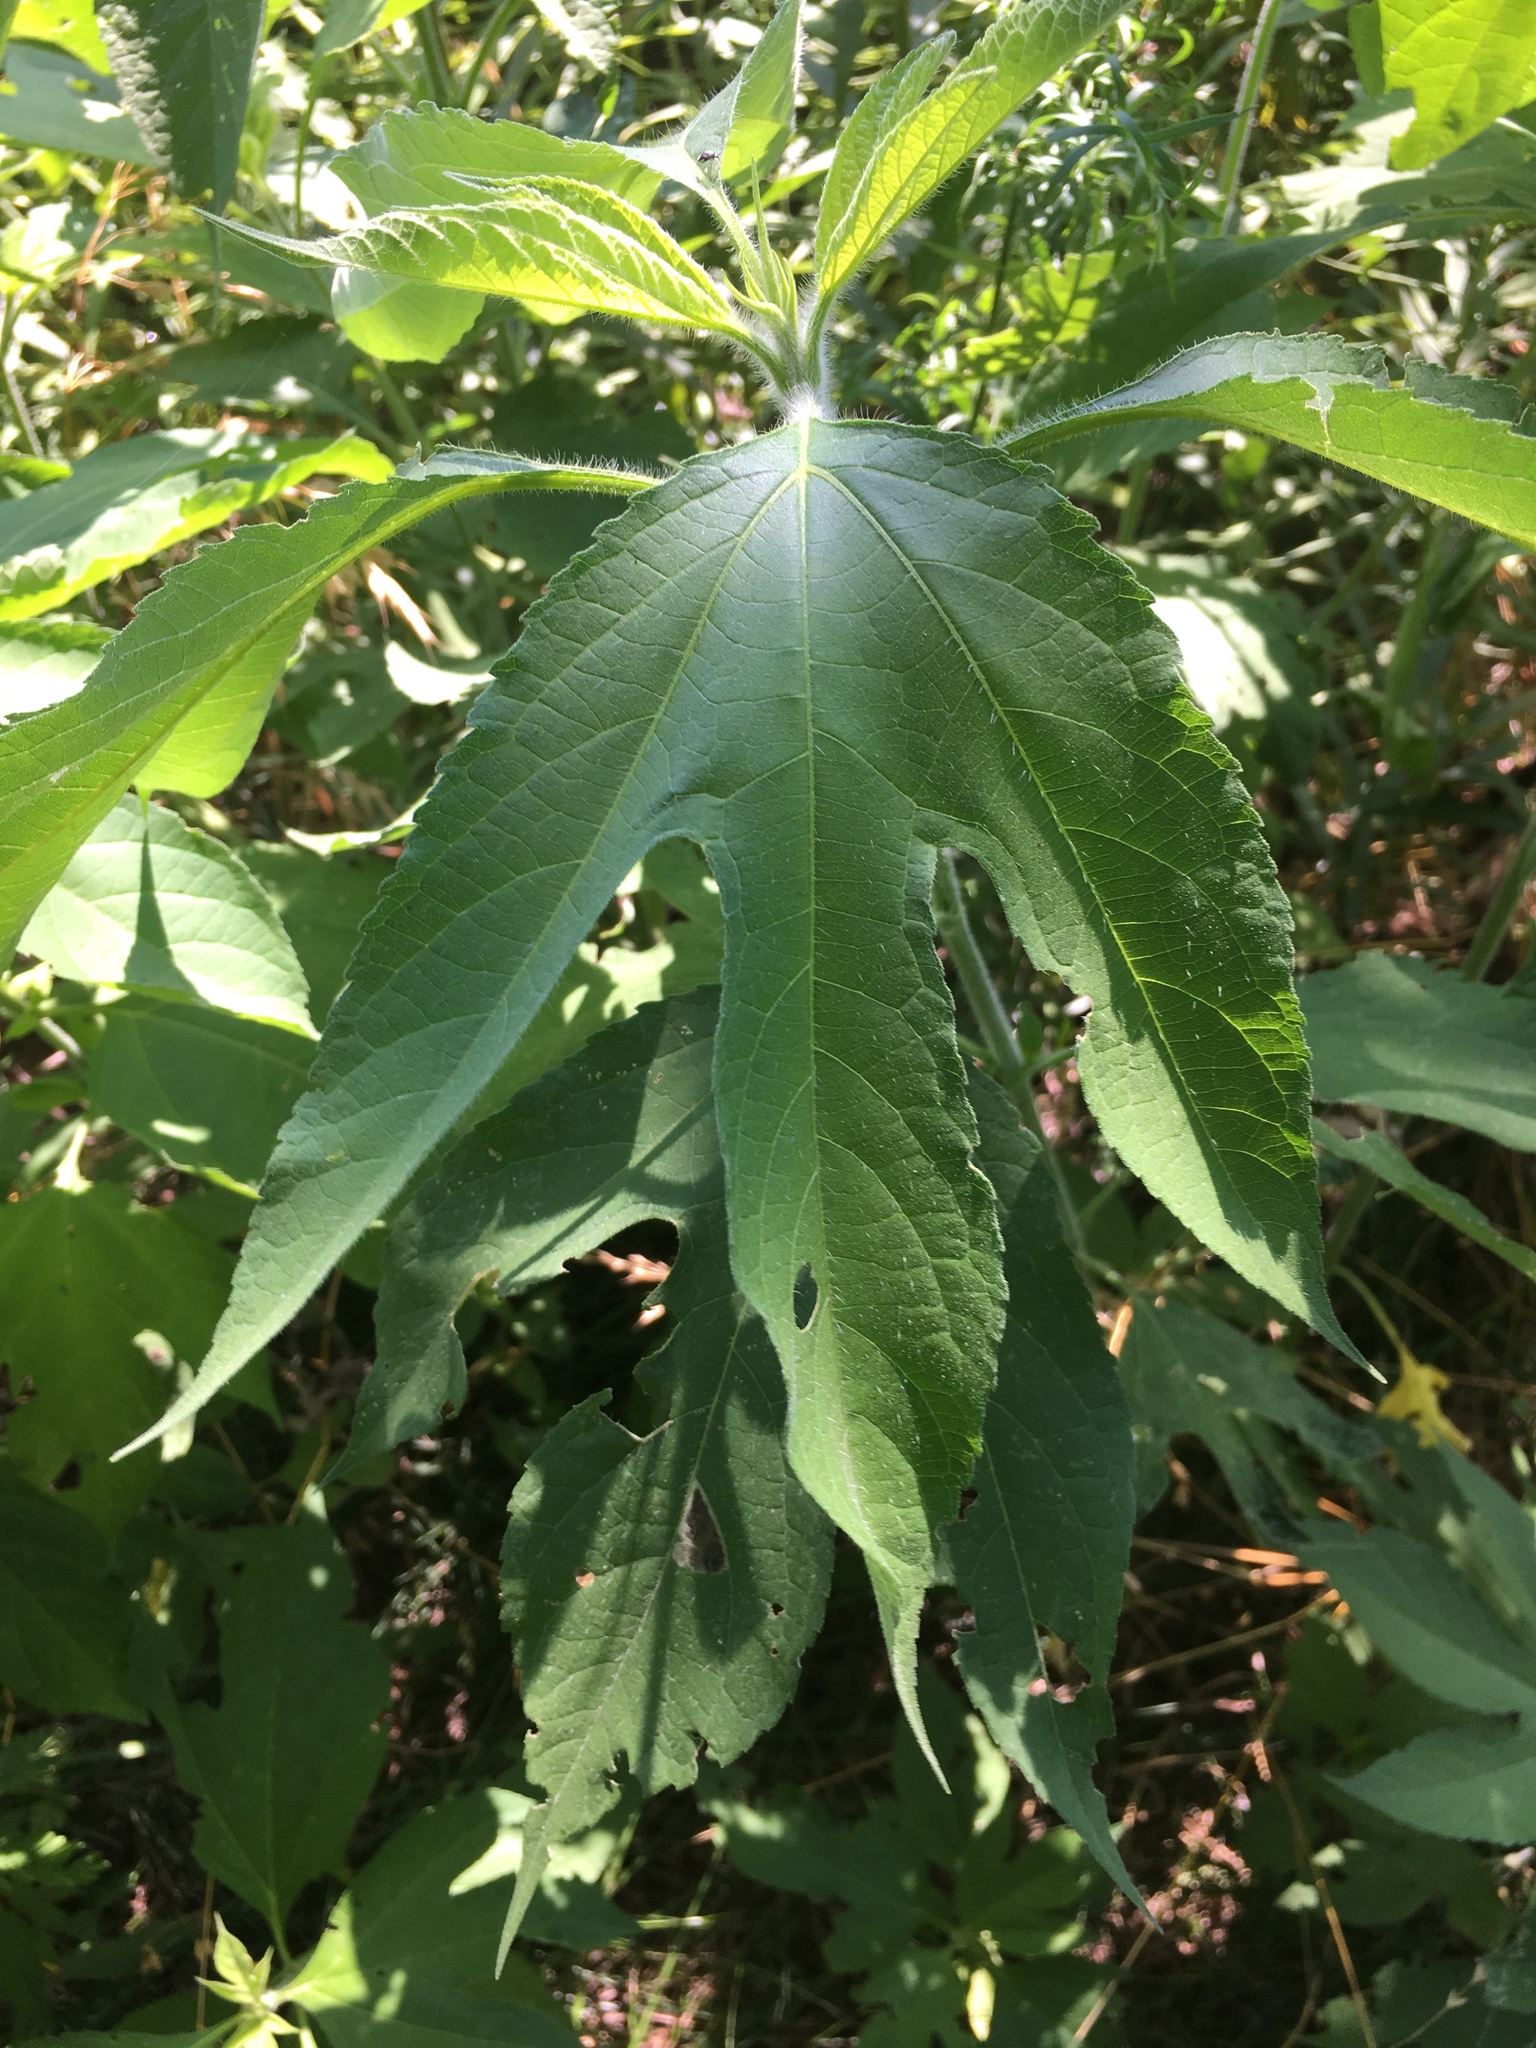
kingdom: Plantae
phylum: Tracheophyta
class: Magnoliopsida
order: Asterales
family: Asteraceae
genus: Ambrosia
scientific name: Ambrosia trifida
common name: Giant ragweed
